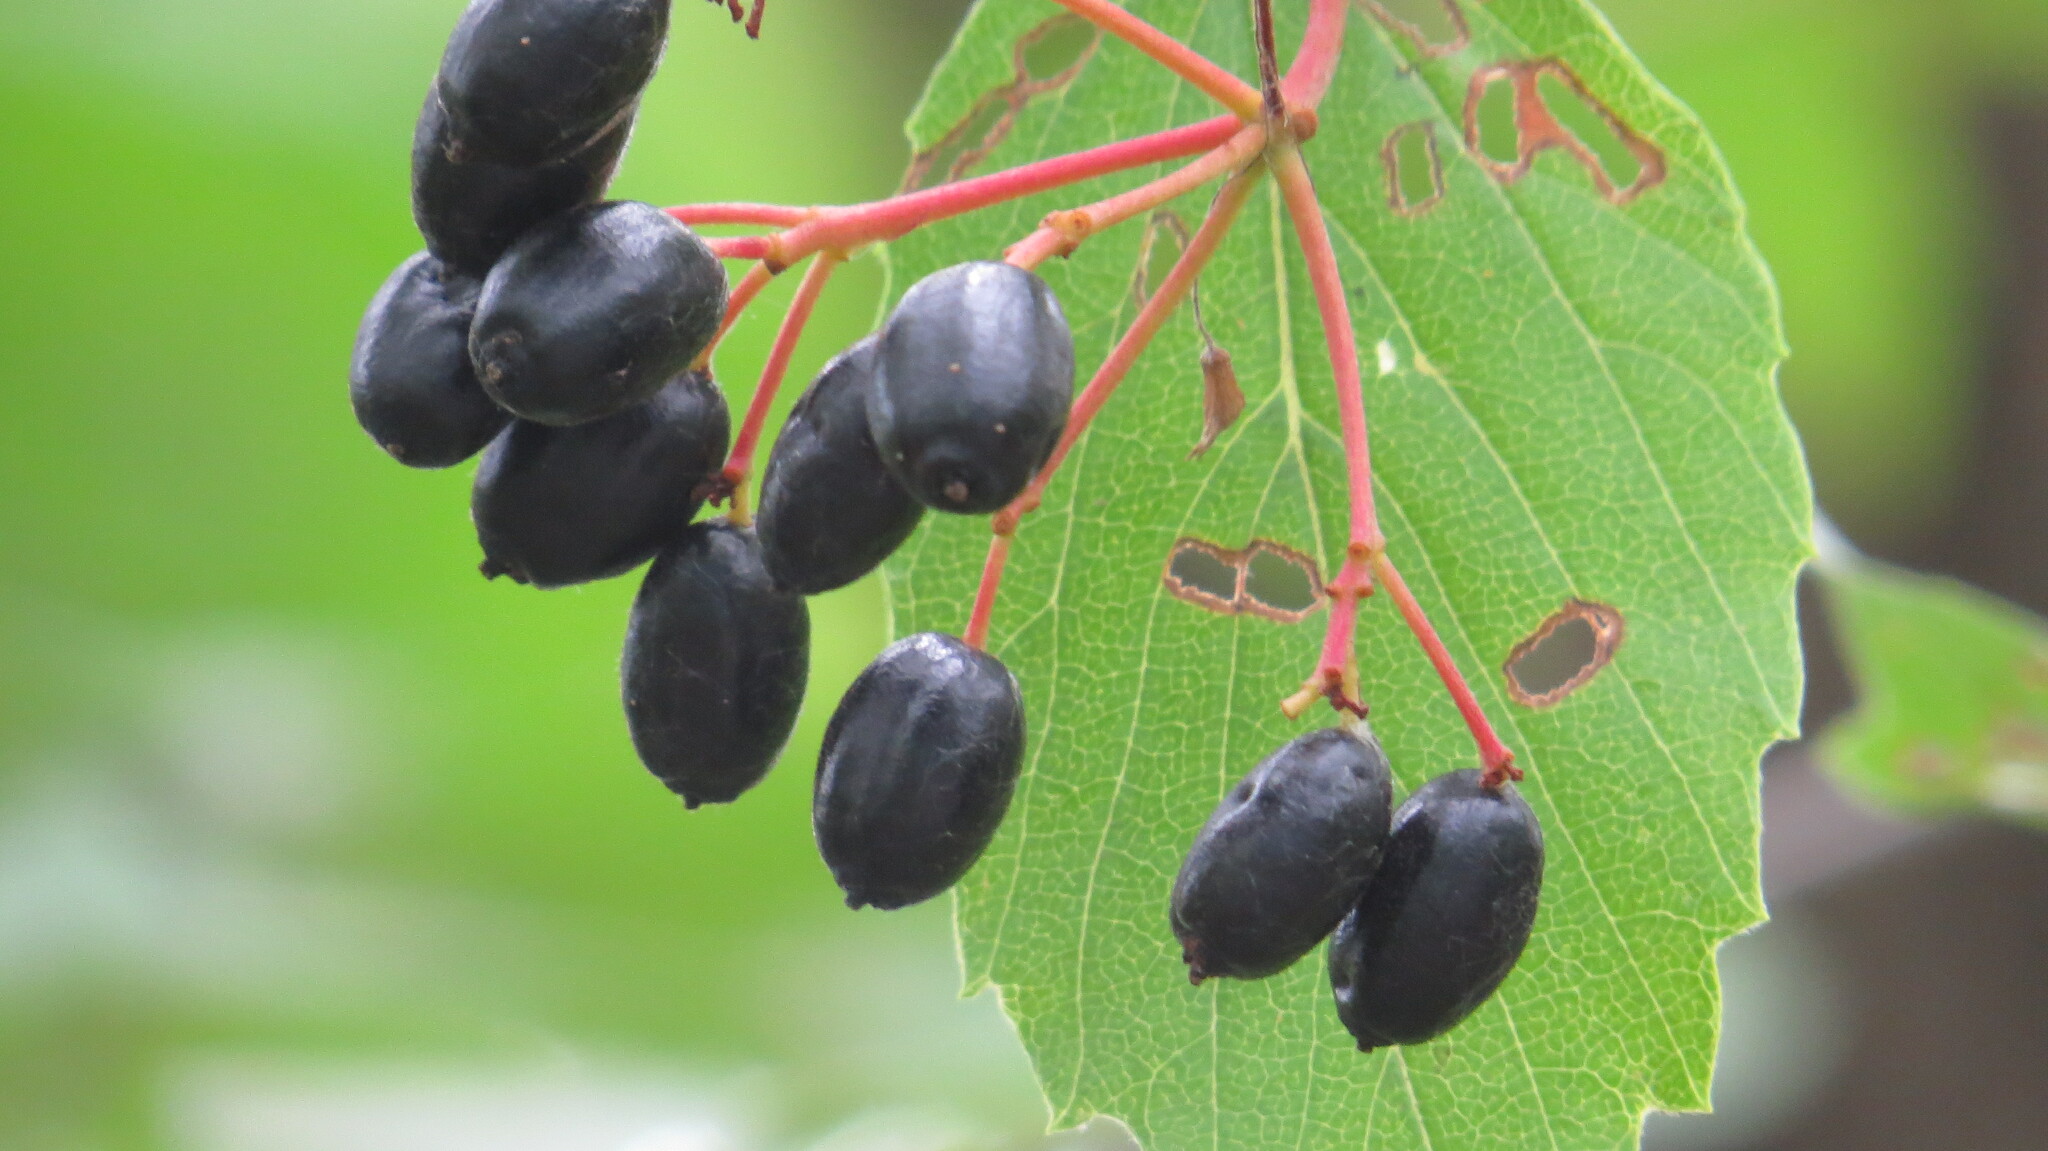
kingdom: Plantae
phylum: Tracheophyta
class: Magnoliopsida
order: Dipsacales
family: Viburnaceae
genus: Viburnum
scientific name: Viburnum rafinesqueanum
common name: Downy arrow-wood
